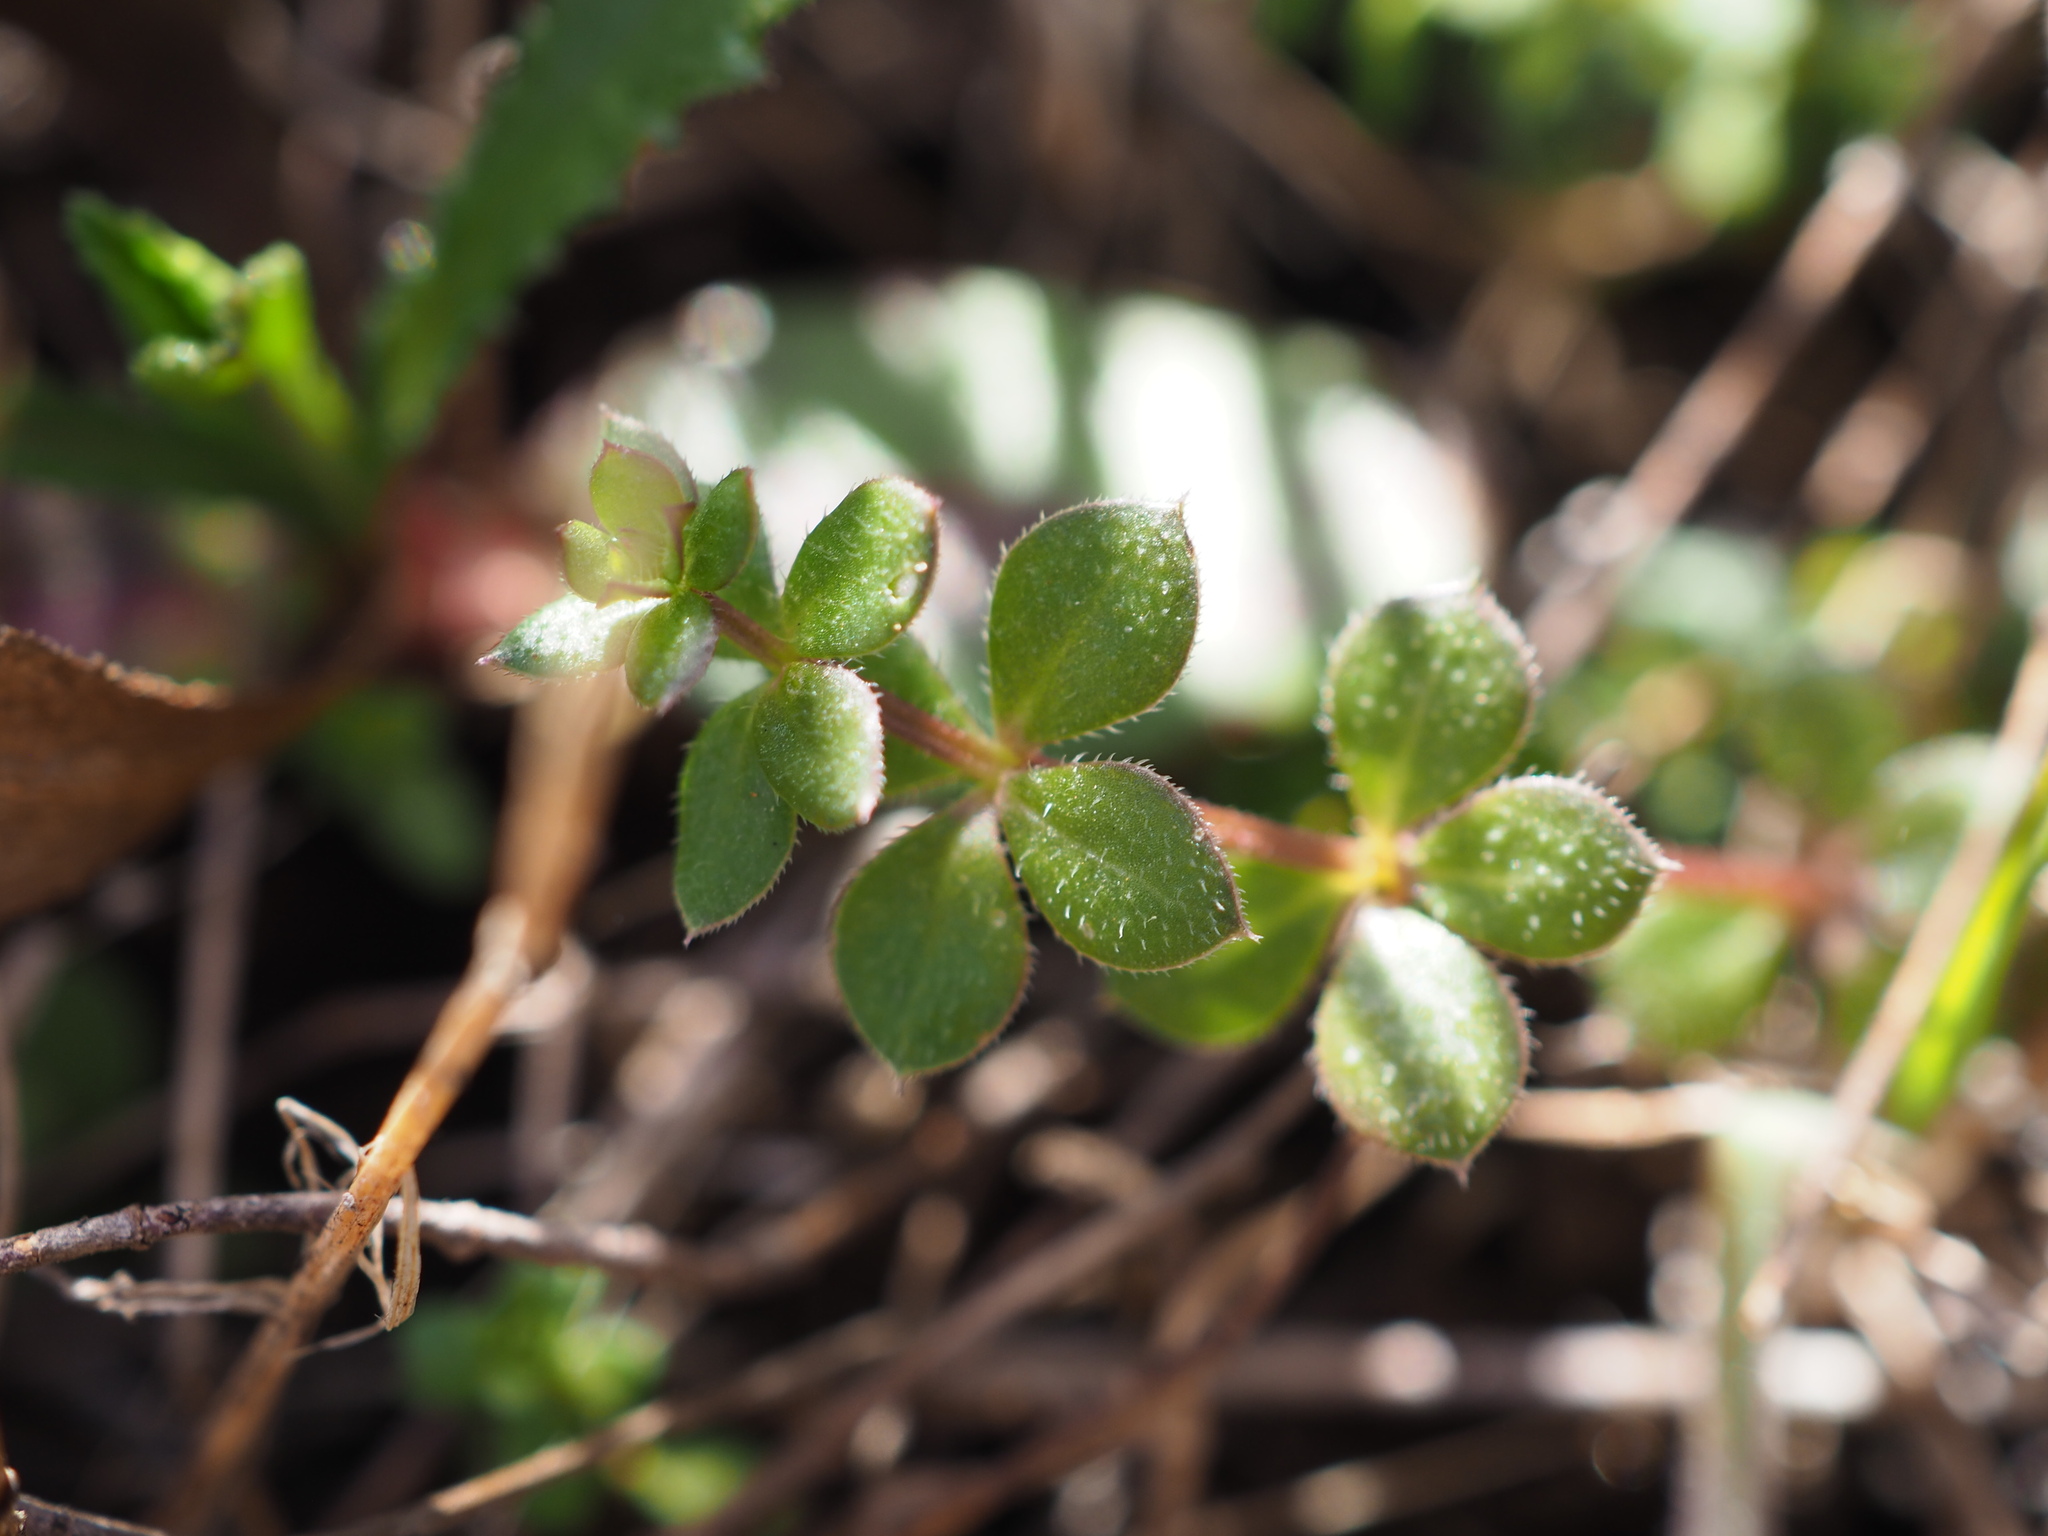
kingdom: Plantae
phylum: Tracheophyta
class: Magnoliopsida
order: Gentianales
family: Rubiaceae
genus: Sherardia
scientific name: Sherardia arvensis
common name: Field madder
